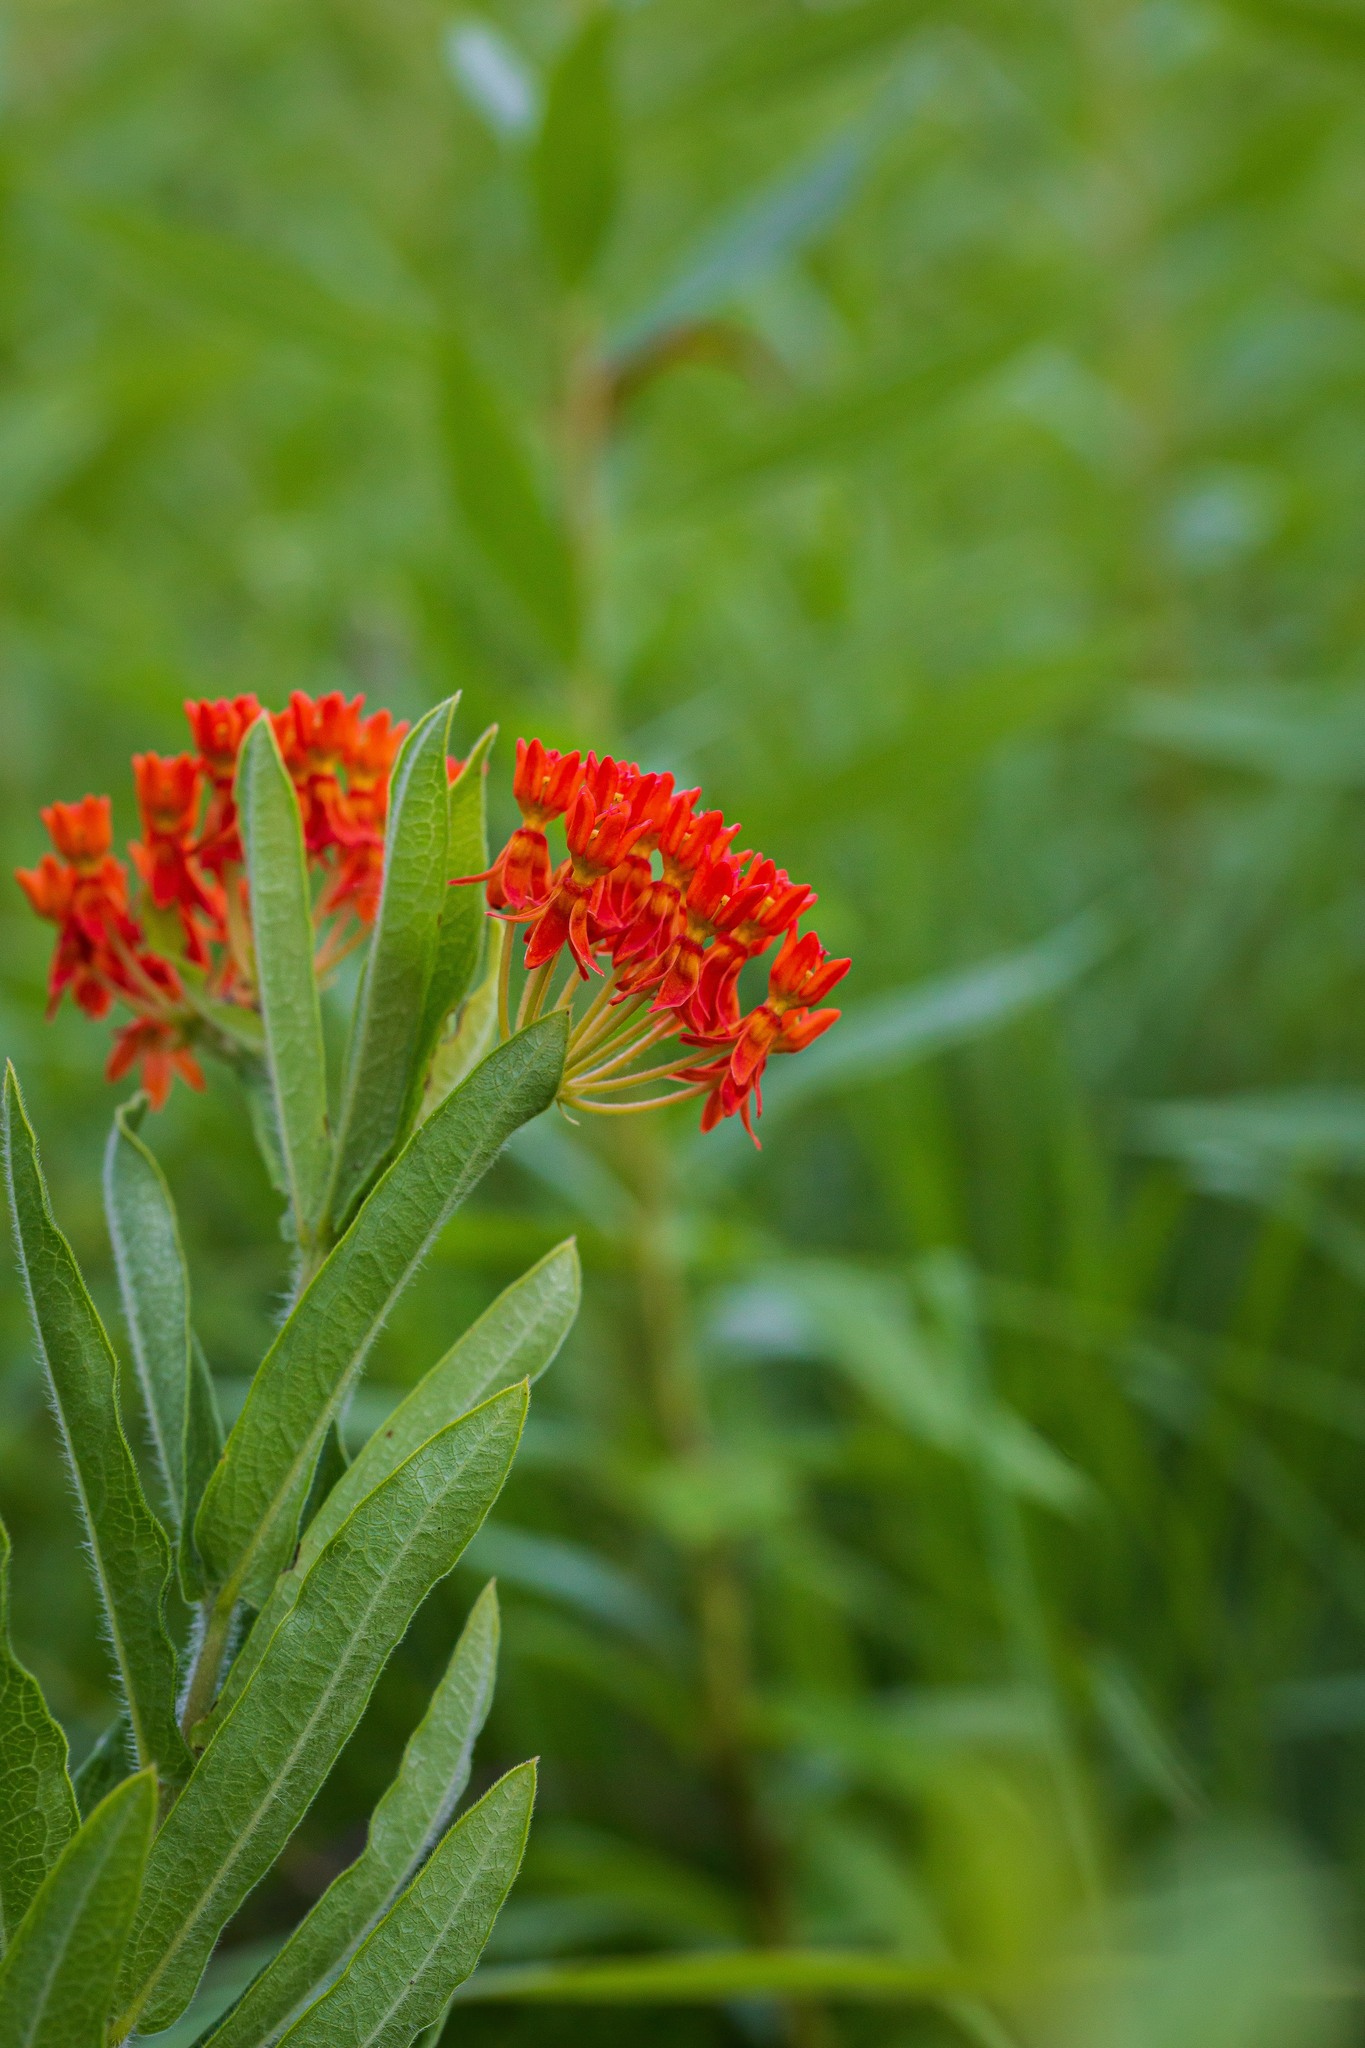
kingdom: Plantae
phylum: Tracheophyta
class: Magnoliopsida
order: Gentianales
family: Apocynaceae
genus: Asclepias
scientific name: Asclepias tuberosa
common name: Butterfly milkweed
